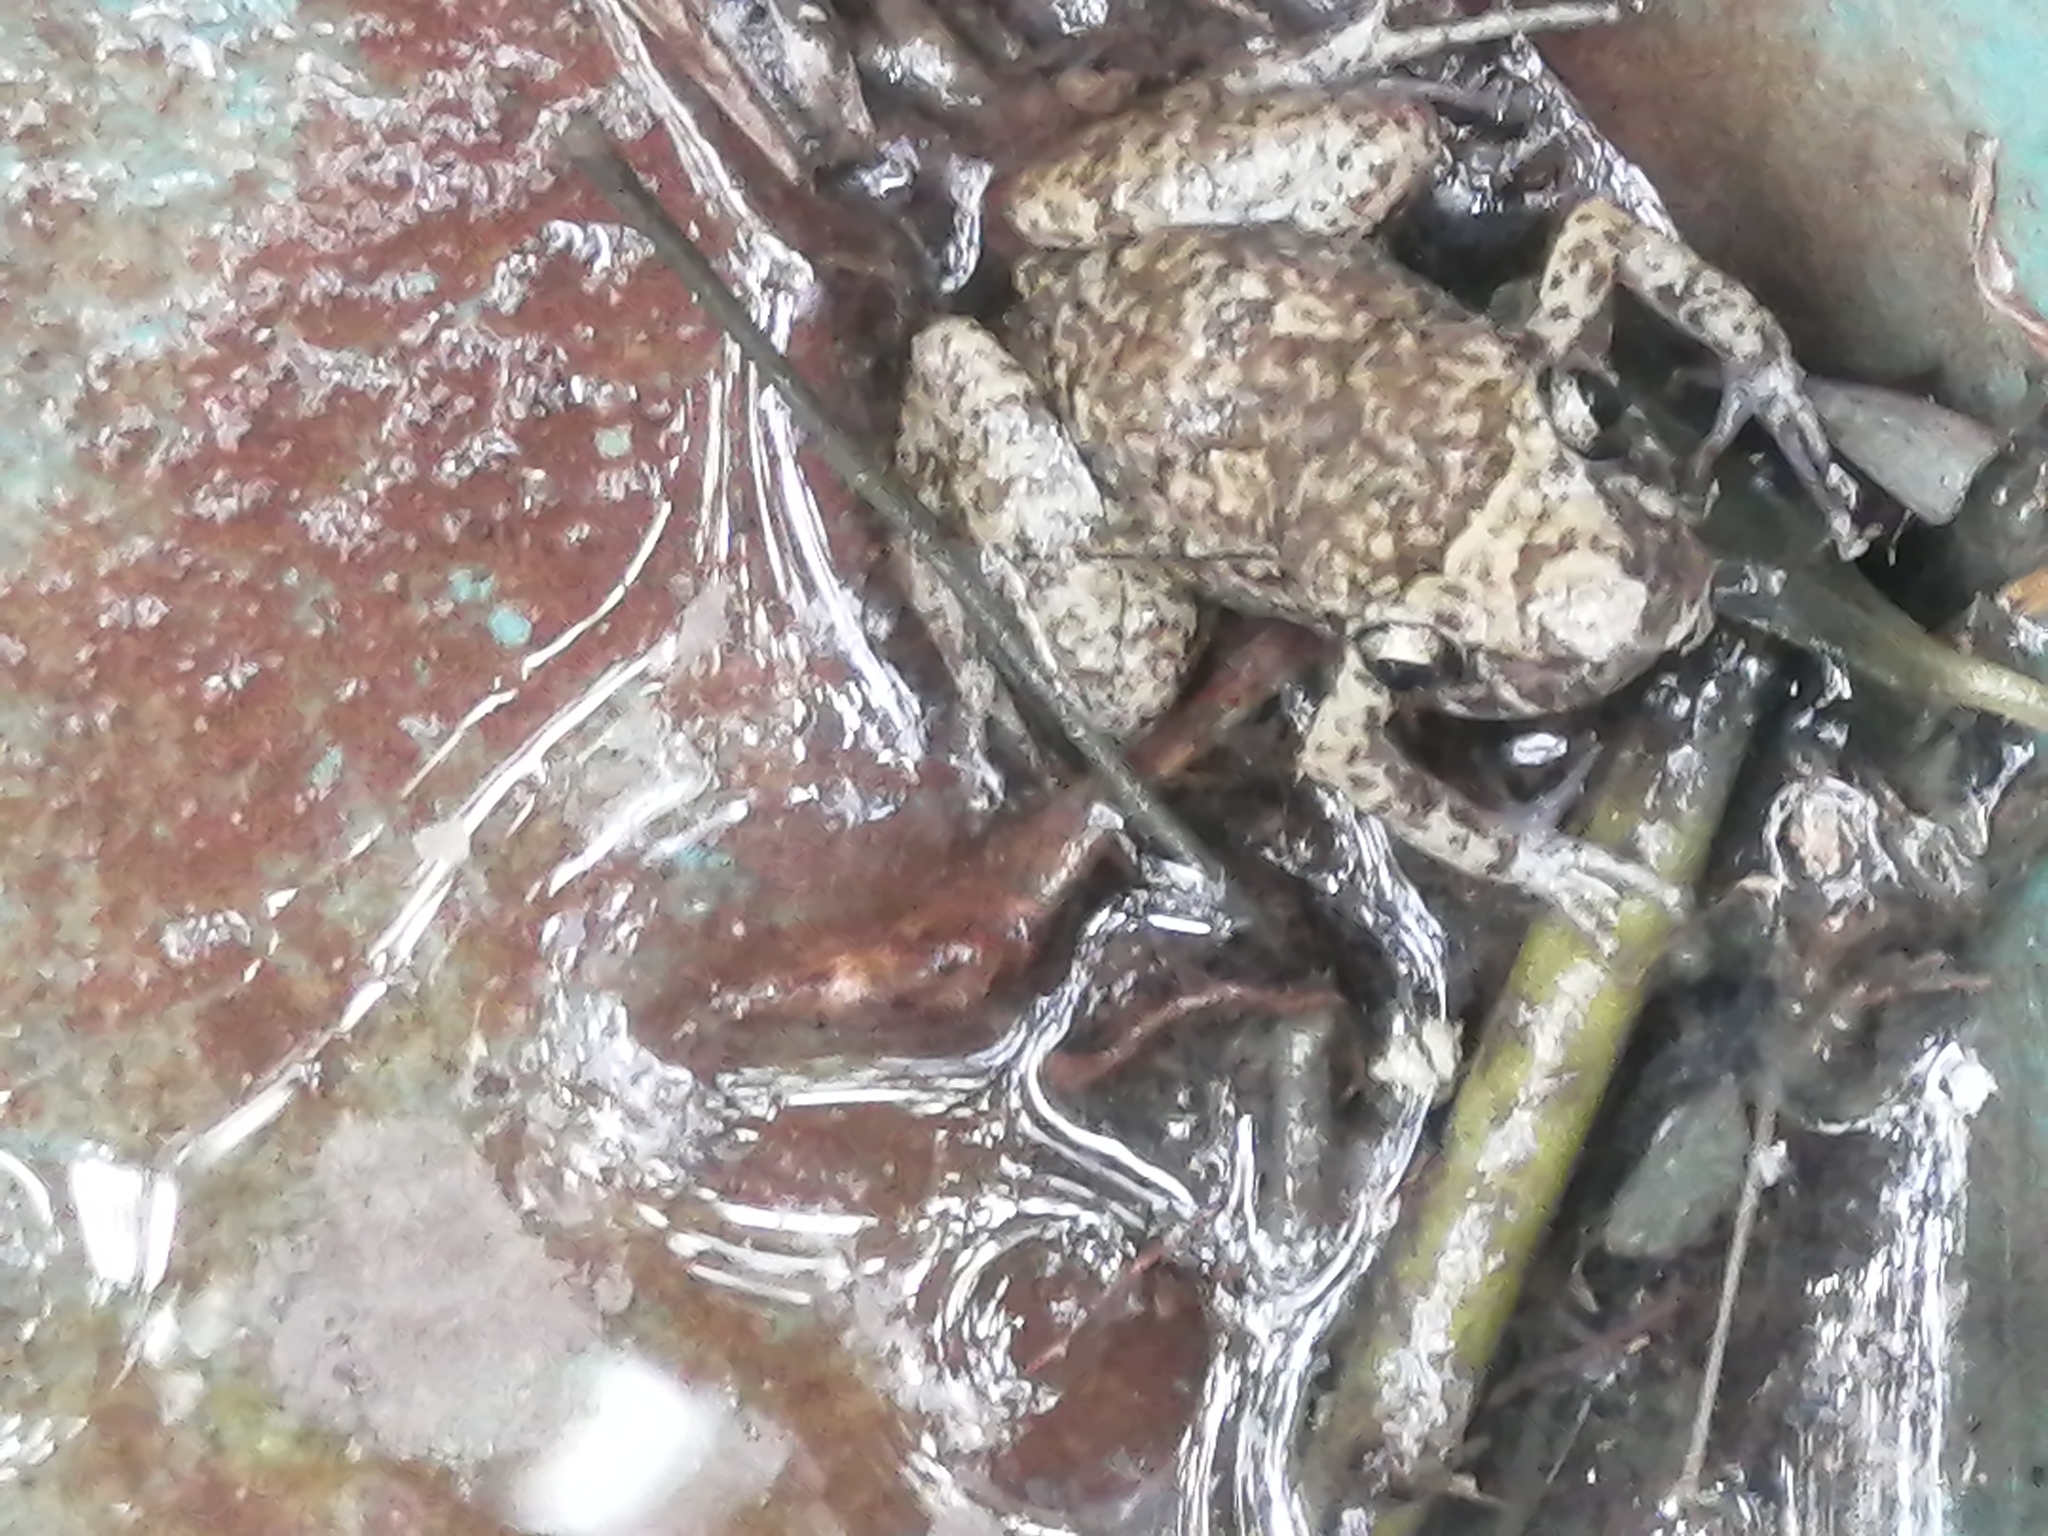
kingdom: Animalia
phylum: Chordata
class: Amphibia
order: Anura
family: Eleutherodactylidae
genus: Eleutherodactylus
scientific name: Eleutherodactylus planirostris
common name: Greenhouse frog
